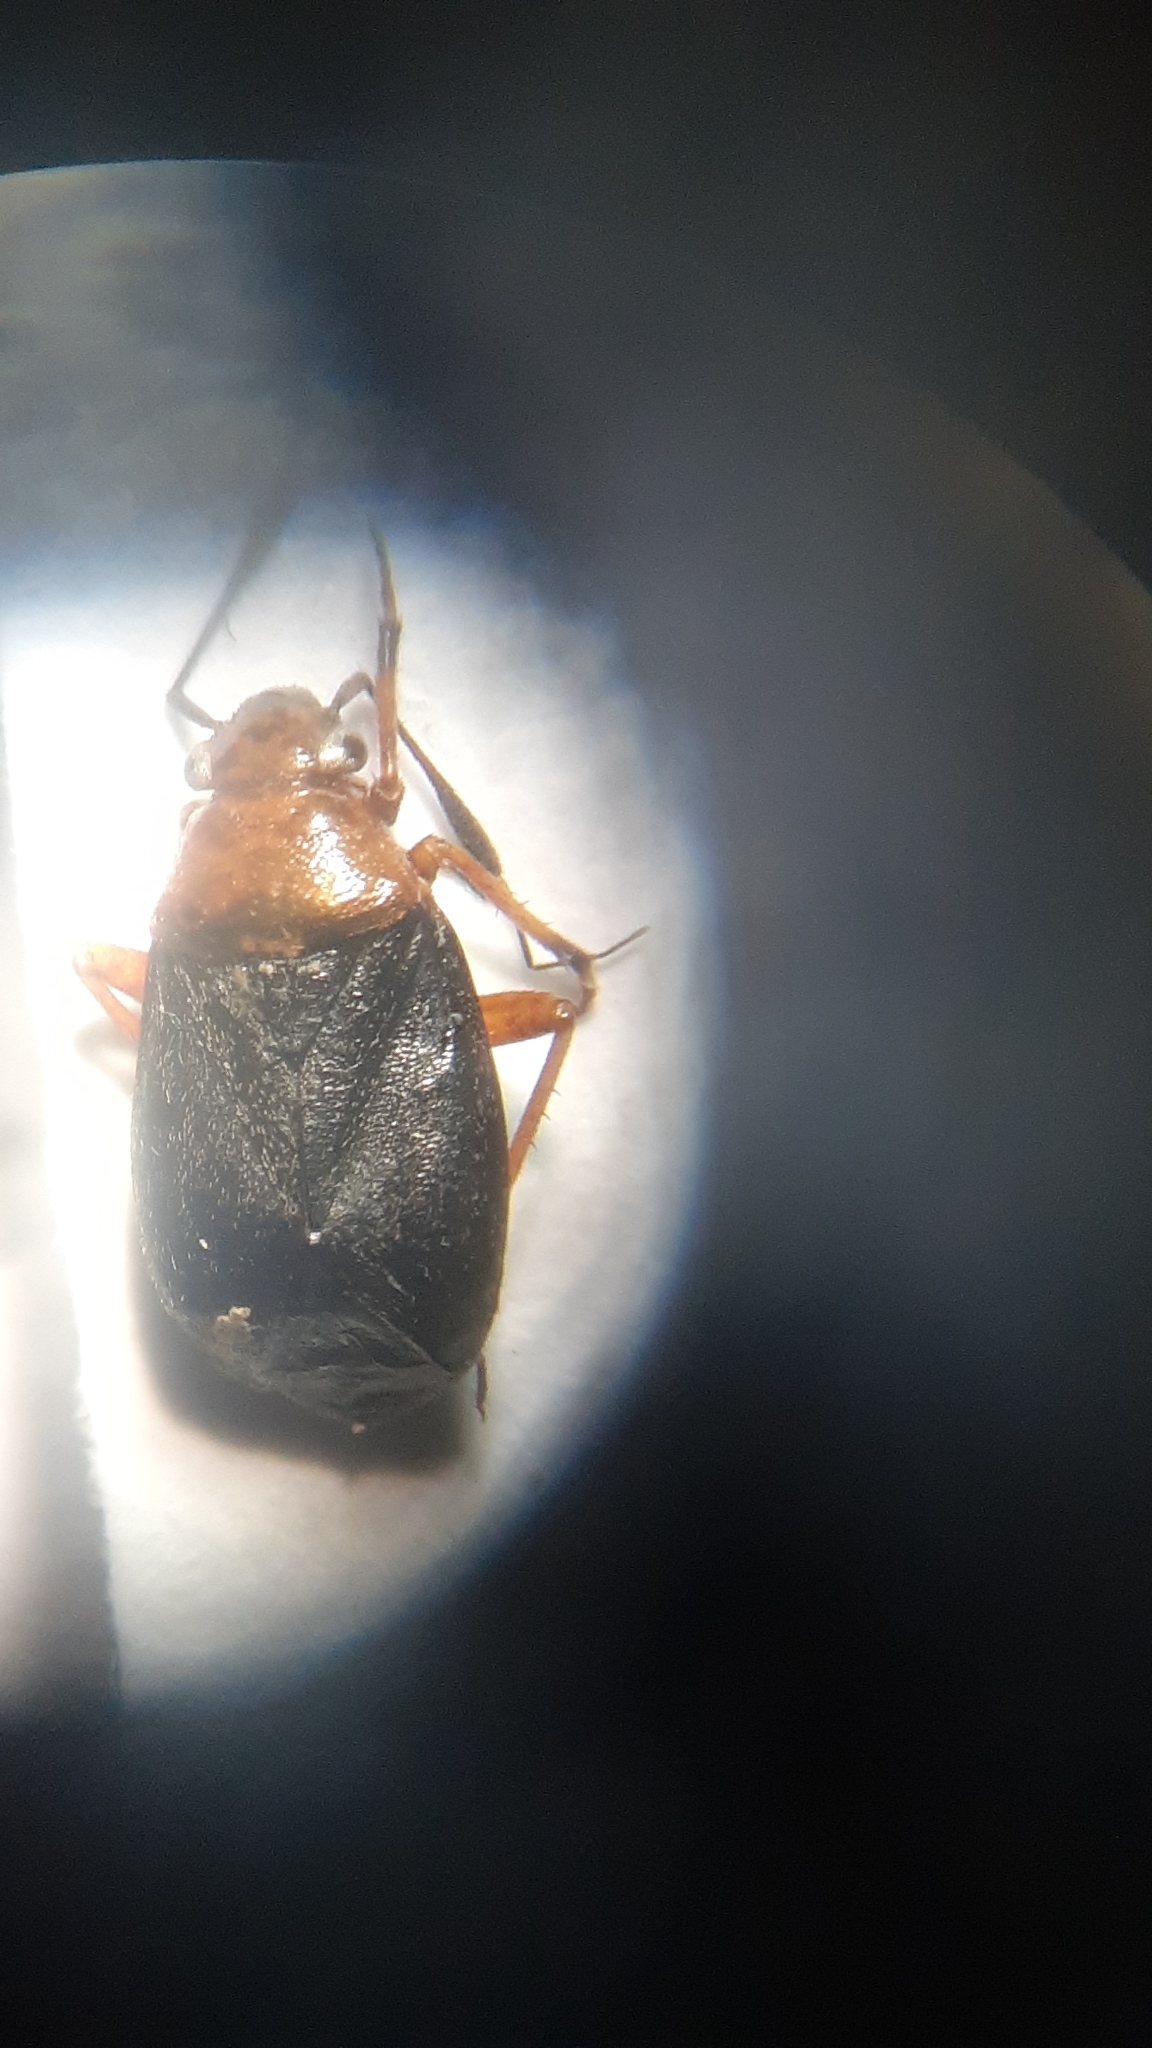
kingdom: Animalia
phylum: Arthropoda
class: Insecta
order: Hemiptera
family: Miridae
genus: Capsus
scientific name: Capsus ater
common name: Black plant bug
